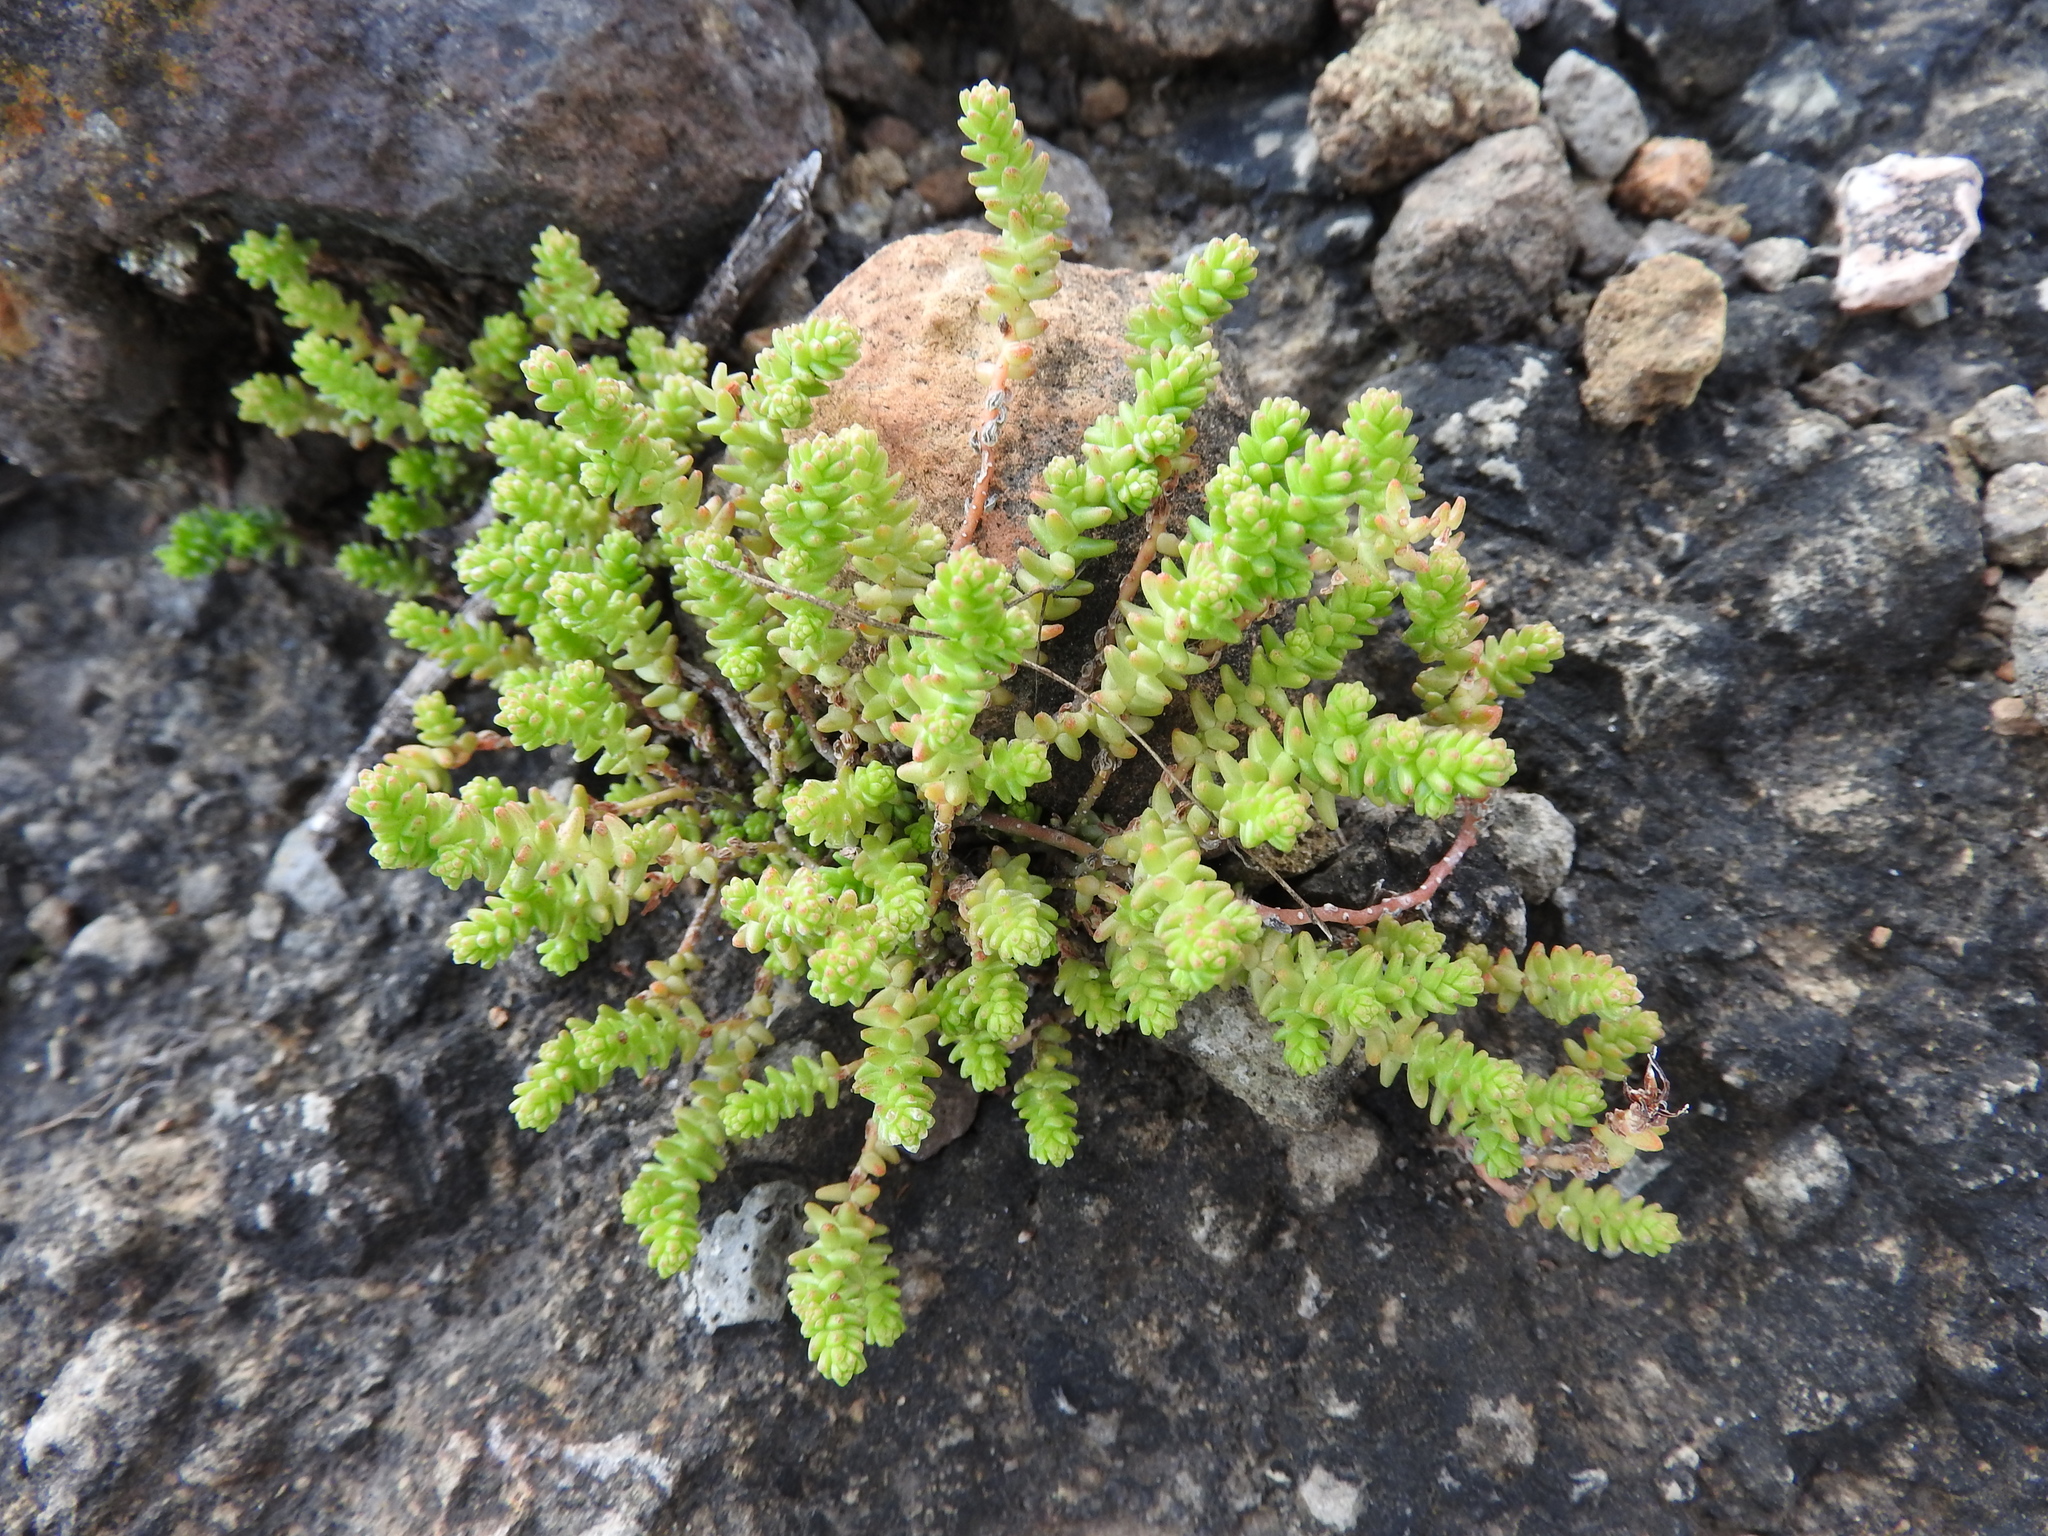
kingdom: Plantae
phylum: Tracheophyta
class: Magnoliopsida
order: Saxifragales
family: Crassulaceae
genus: Sedum
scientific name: Sedum moranense
